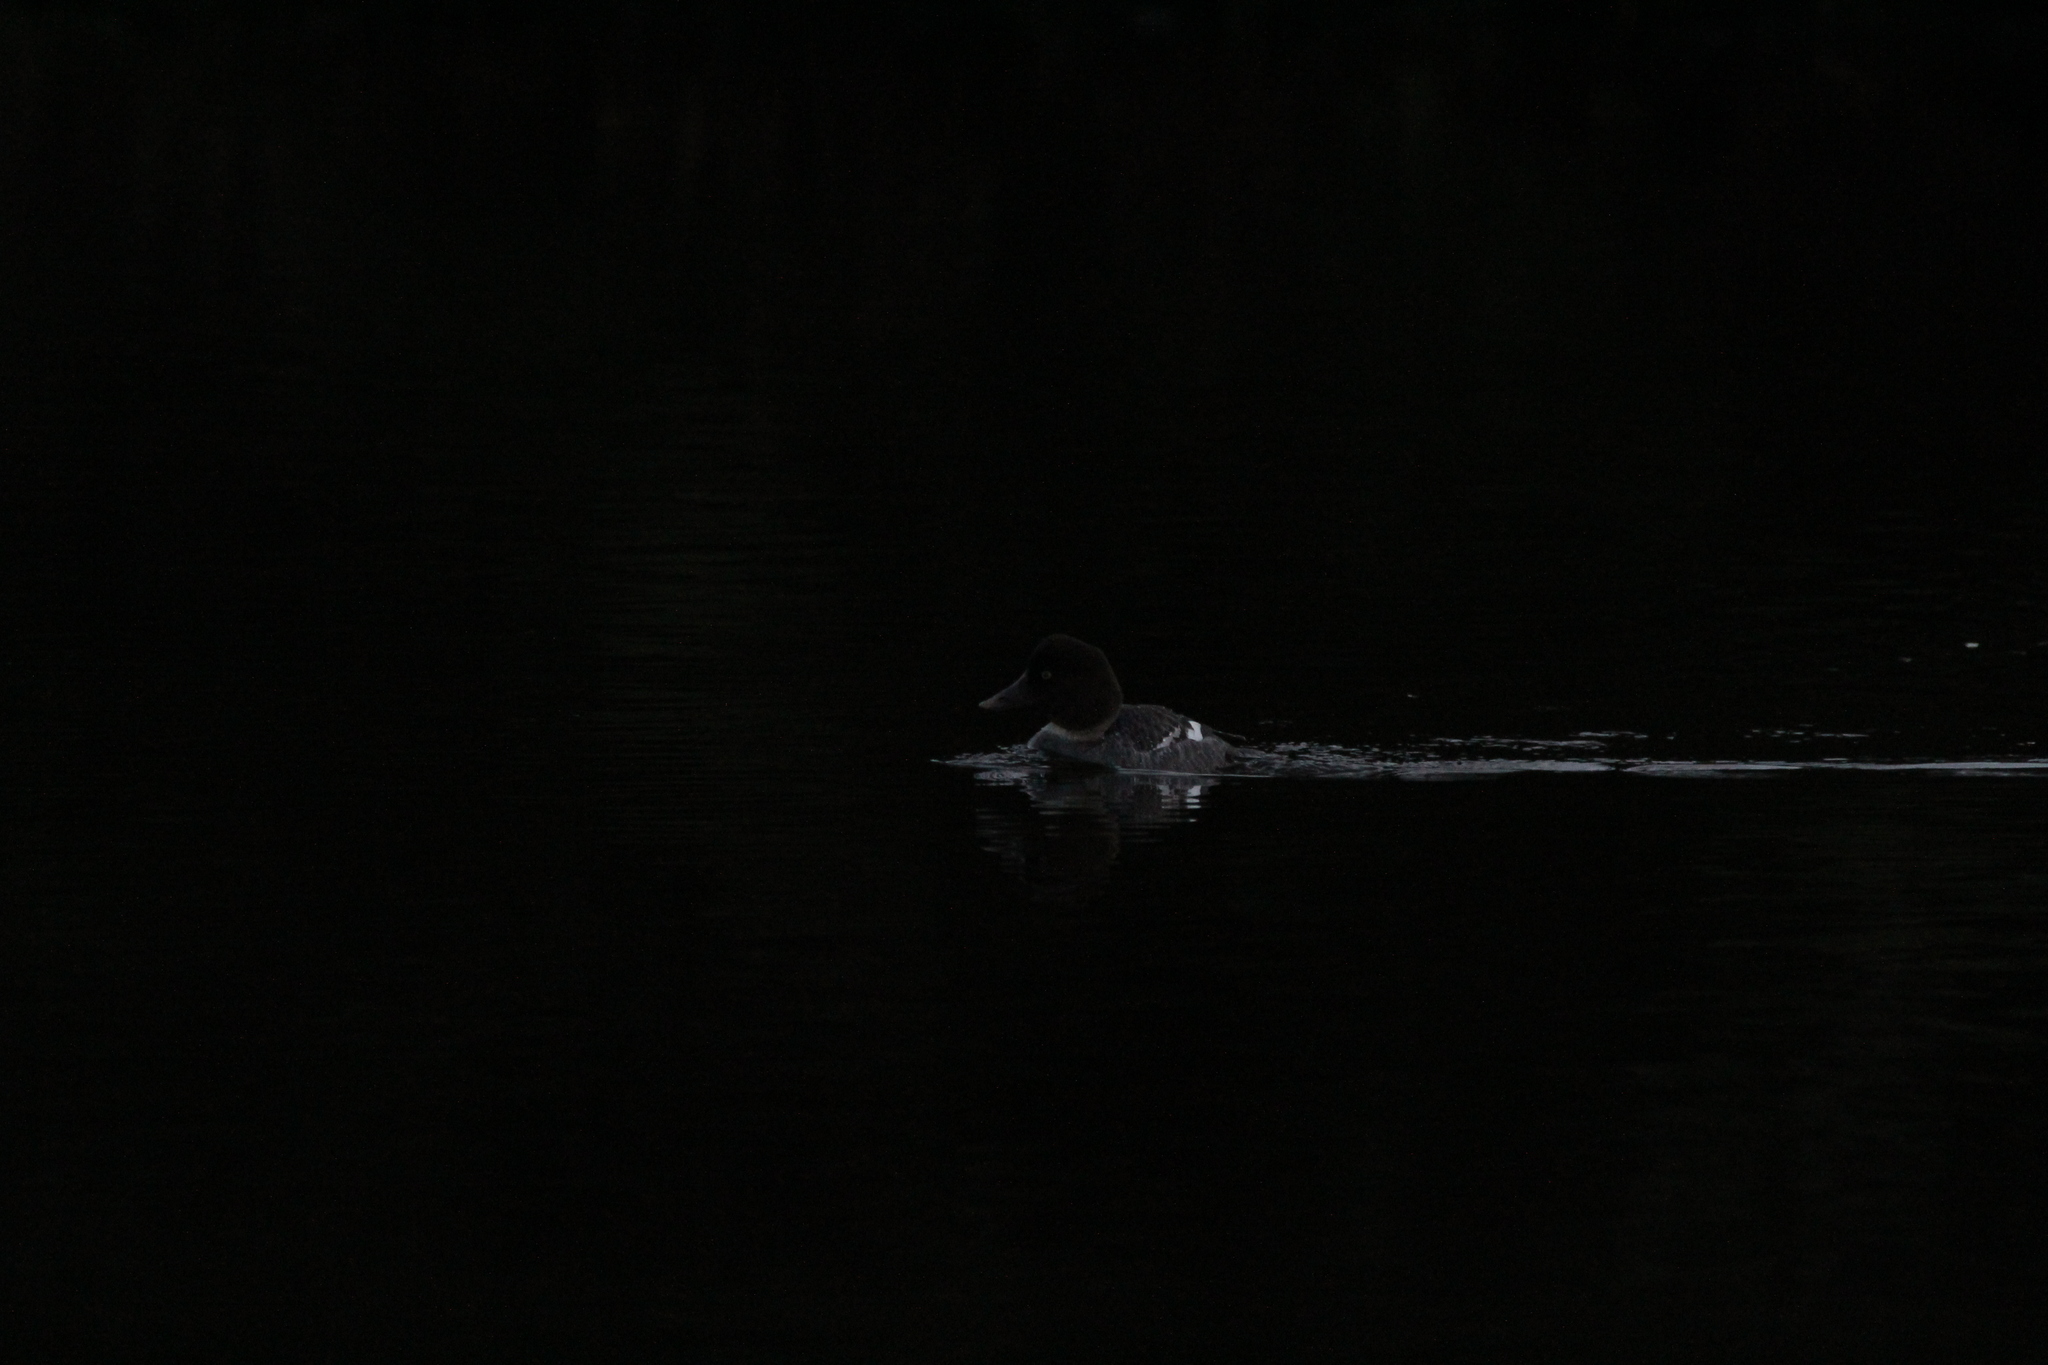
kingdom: Animalia
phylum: Chordata
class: Aves
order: Anseriformes
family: Anatidae
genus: Bucephala
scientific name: Bucephala clangula
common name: Common goldeneye
